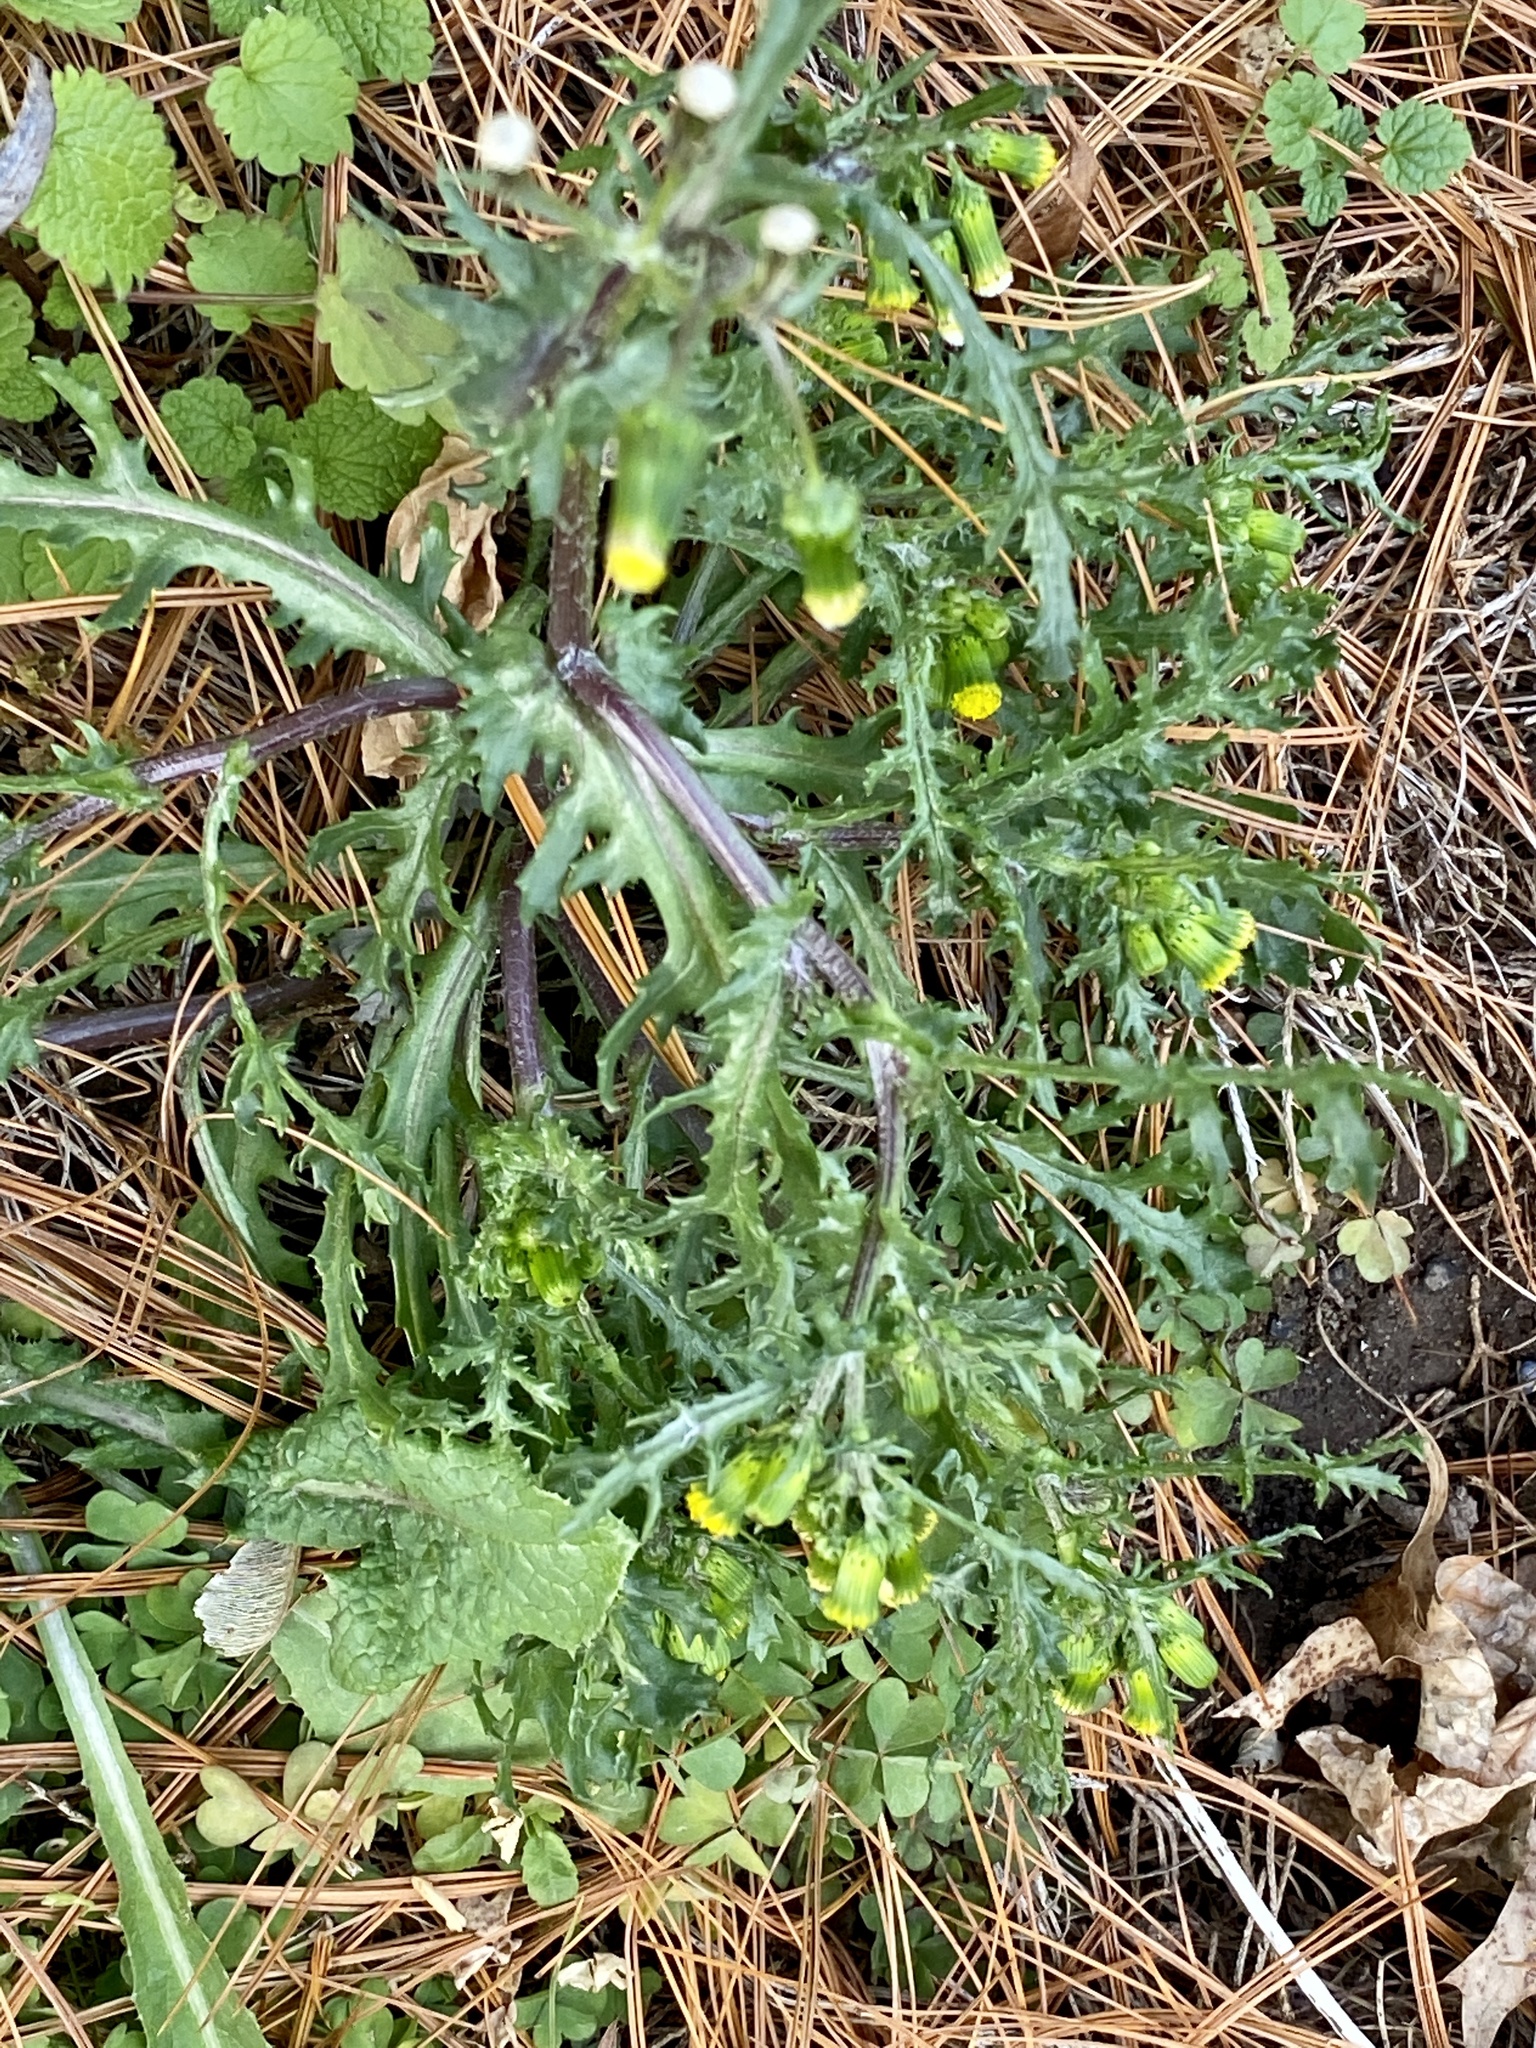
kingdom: Plantae
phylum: Tracheophyta
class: Magnoliopsida
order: Asterales
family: Asteraceae
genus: Senecio
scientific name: Senecio vulgaris
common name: Old-man-in-the-spring
